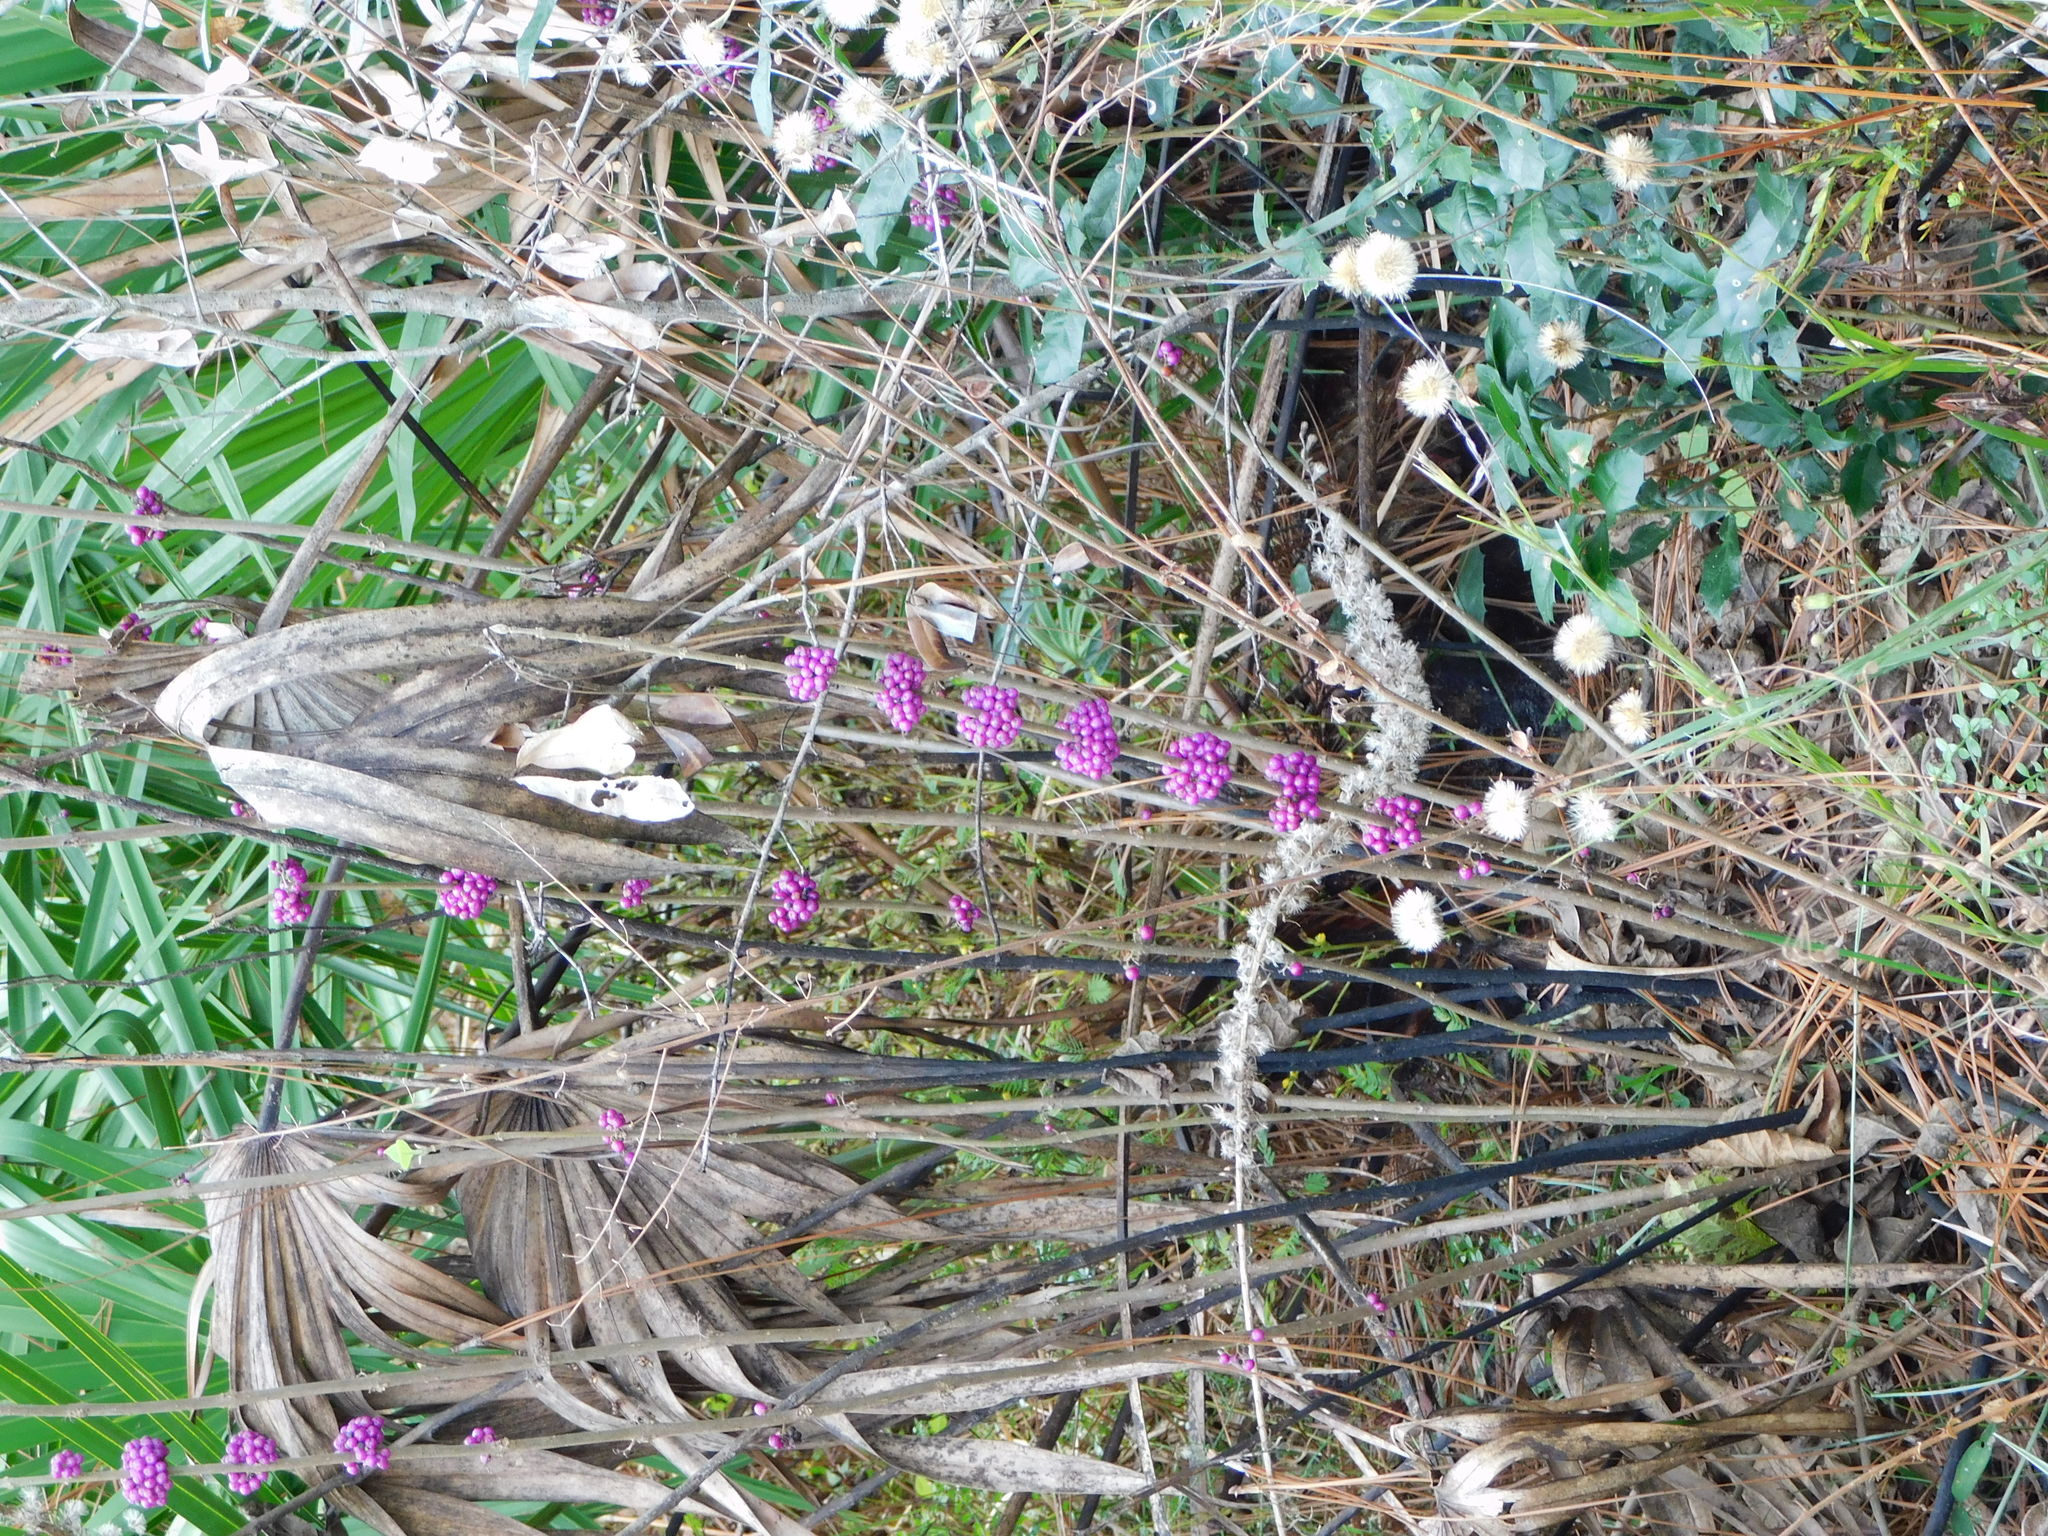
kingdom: Plantae
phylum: Tracheophyta
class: Magnoliopsida
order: Lamiales
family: Lamiaceae
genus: Callicarpa
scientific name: Callicarpa americana
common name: American beautyberry
